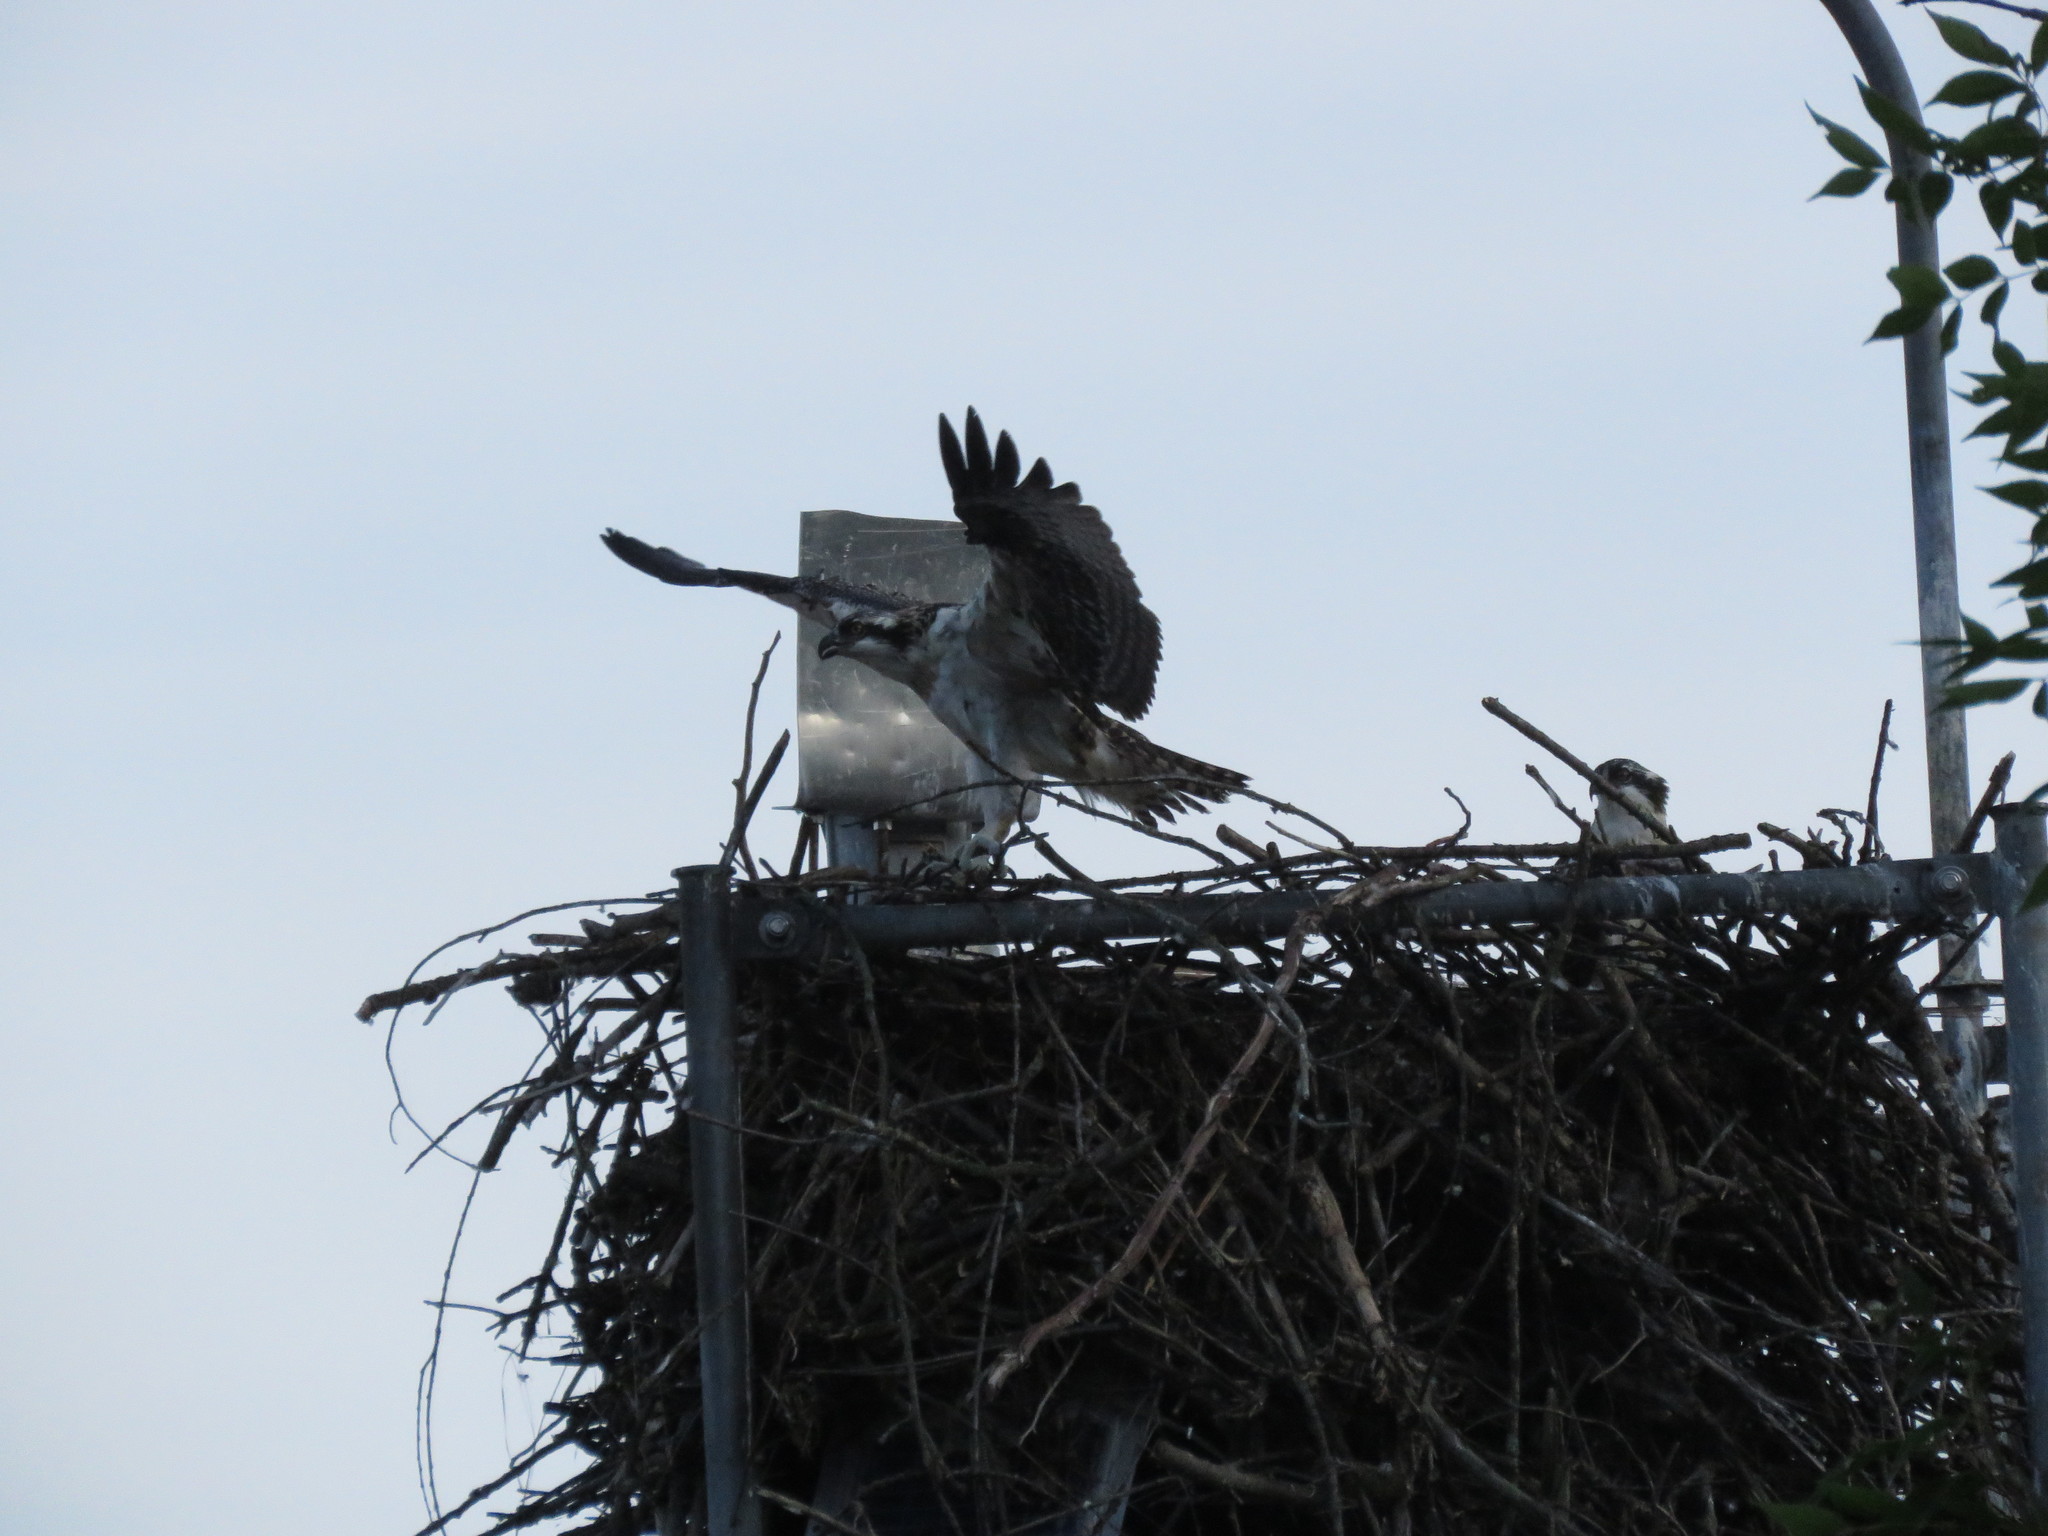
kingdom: Animalia
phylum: Chordata
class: Aves
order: Accipitriformes
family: Pandionidae
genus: Pandion
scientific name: Pandion haliaetus
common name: Osprey
